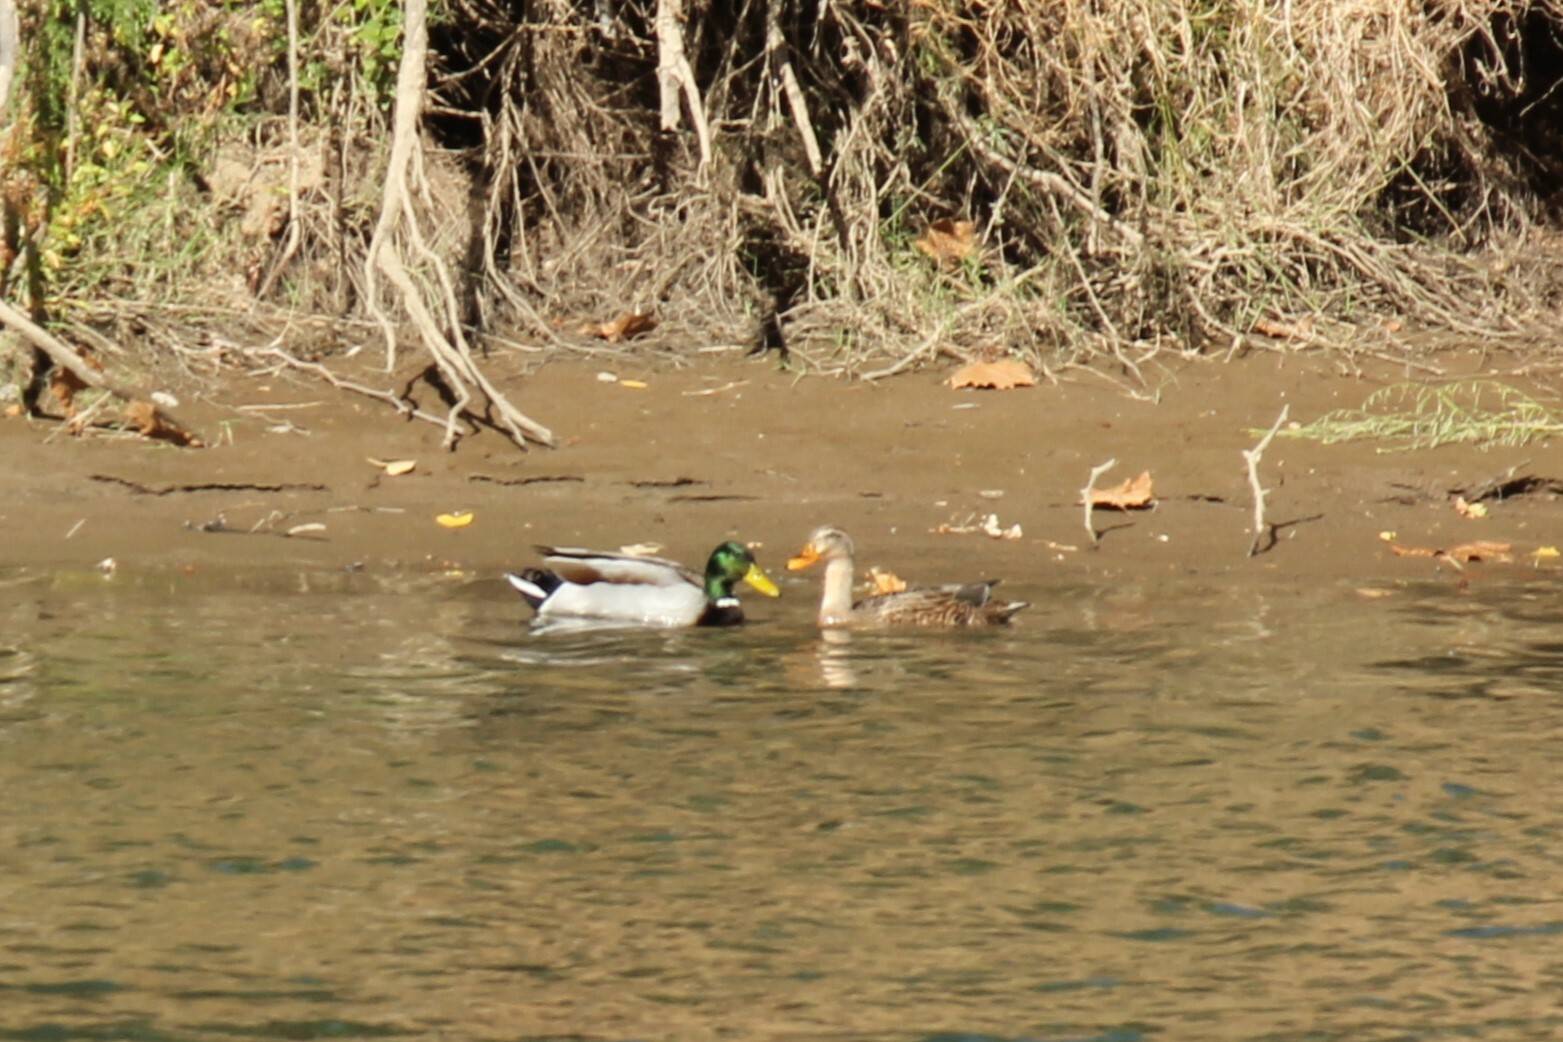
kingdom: Animalia
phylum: Chordata
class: Aves
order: Anseriformes
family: Anatidae
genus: Anas
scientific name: Anas platyrhynchos
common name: Mallard
